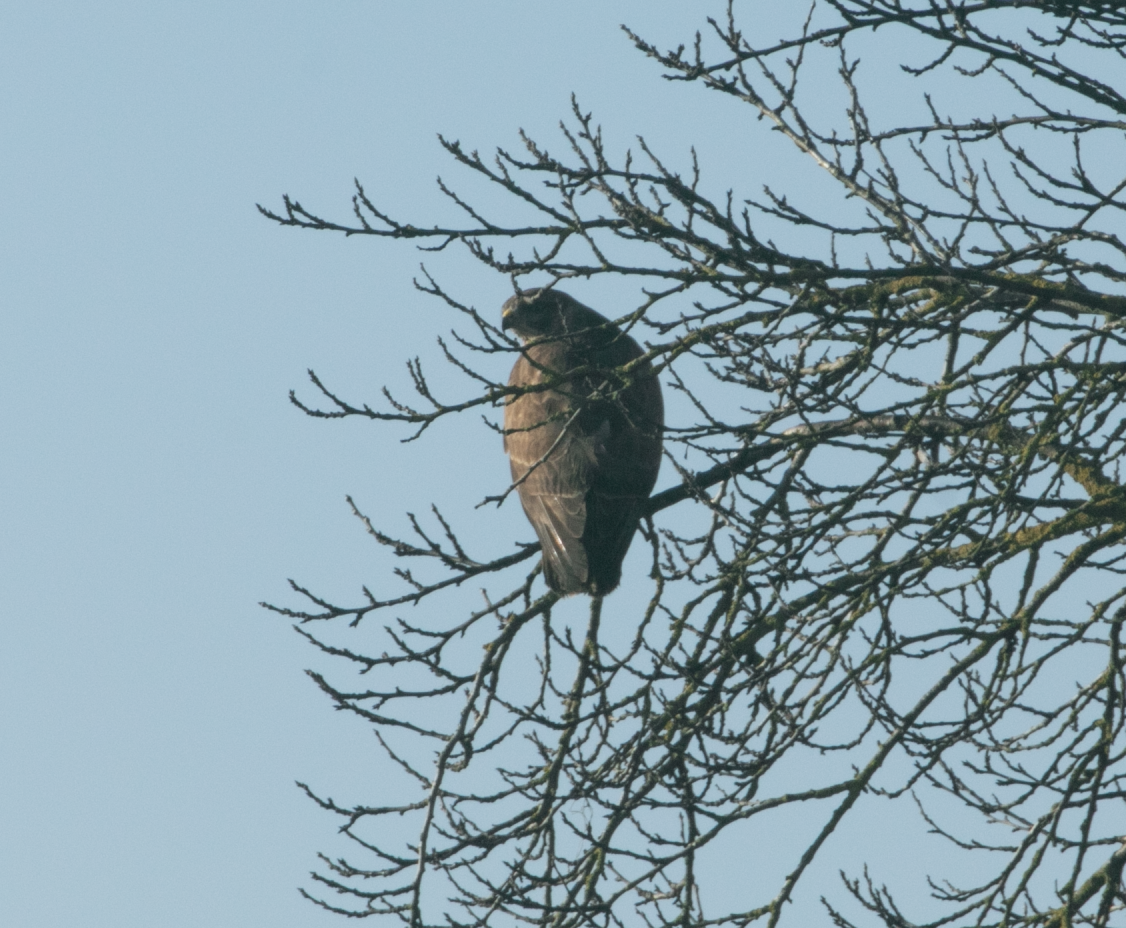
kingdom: Animalia
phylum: Chordata
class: Aves
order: Accipitriformes
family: Accipitridae
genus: Buteo
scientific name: Buteo buteo
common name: Common buzzard
